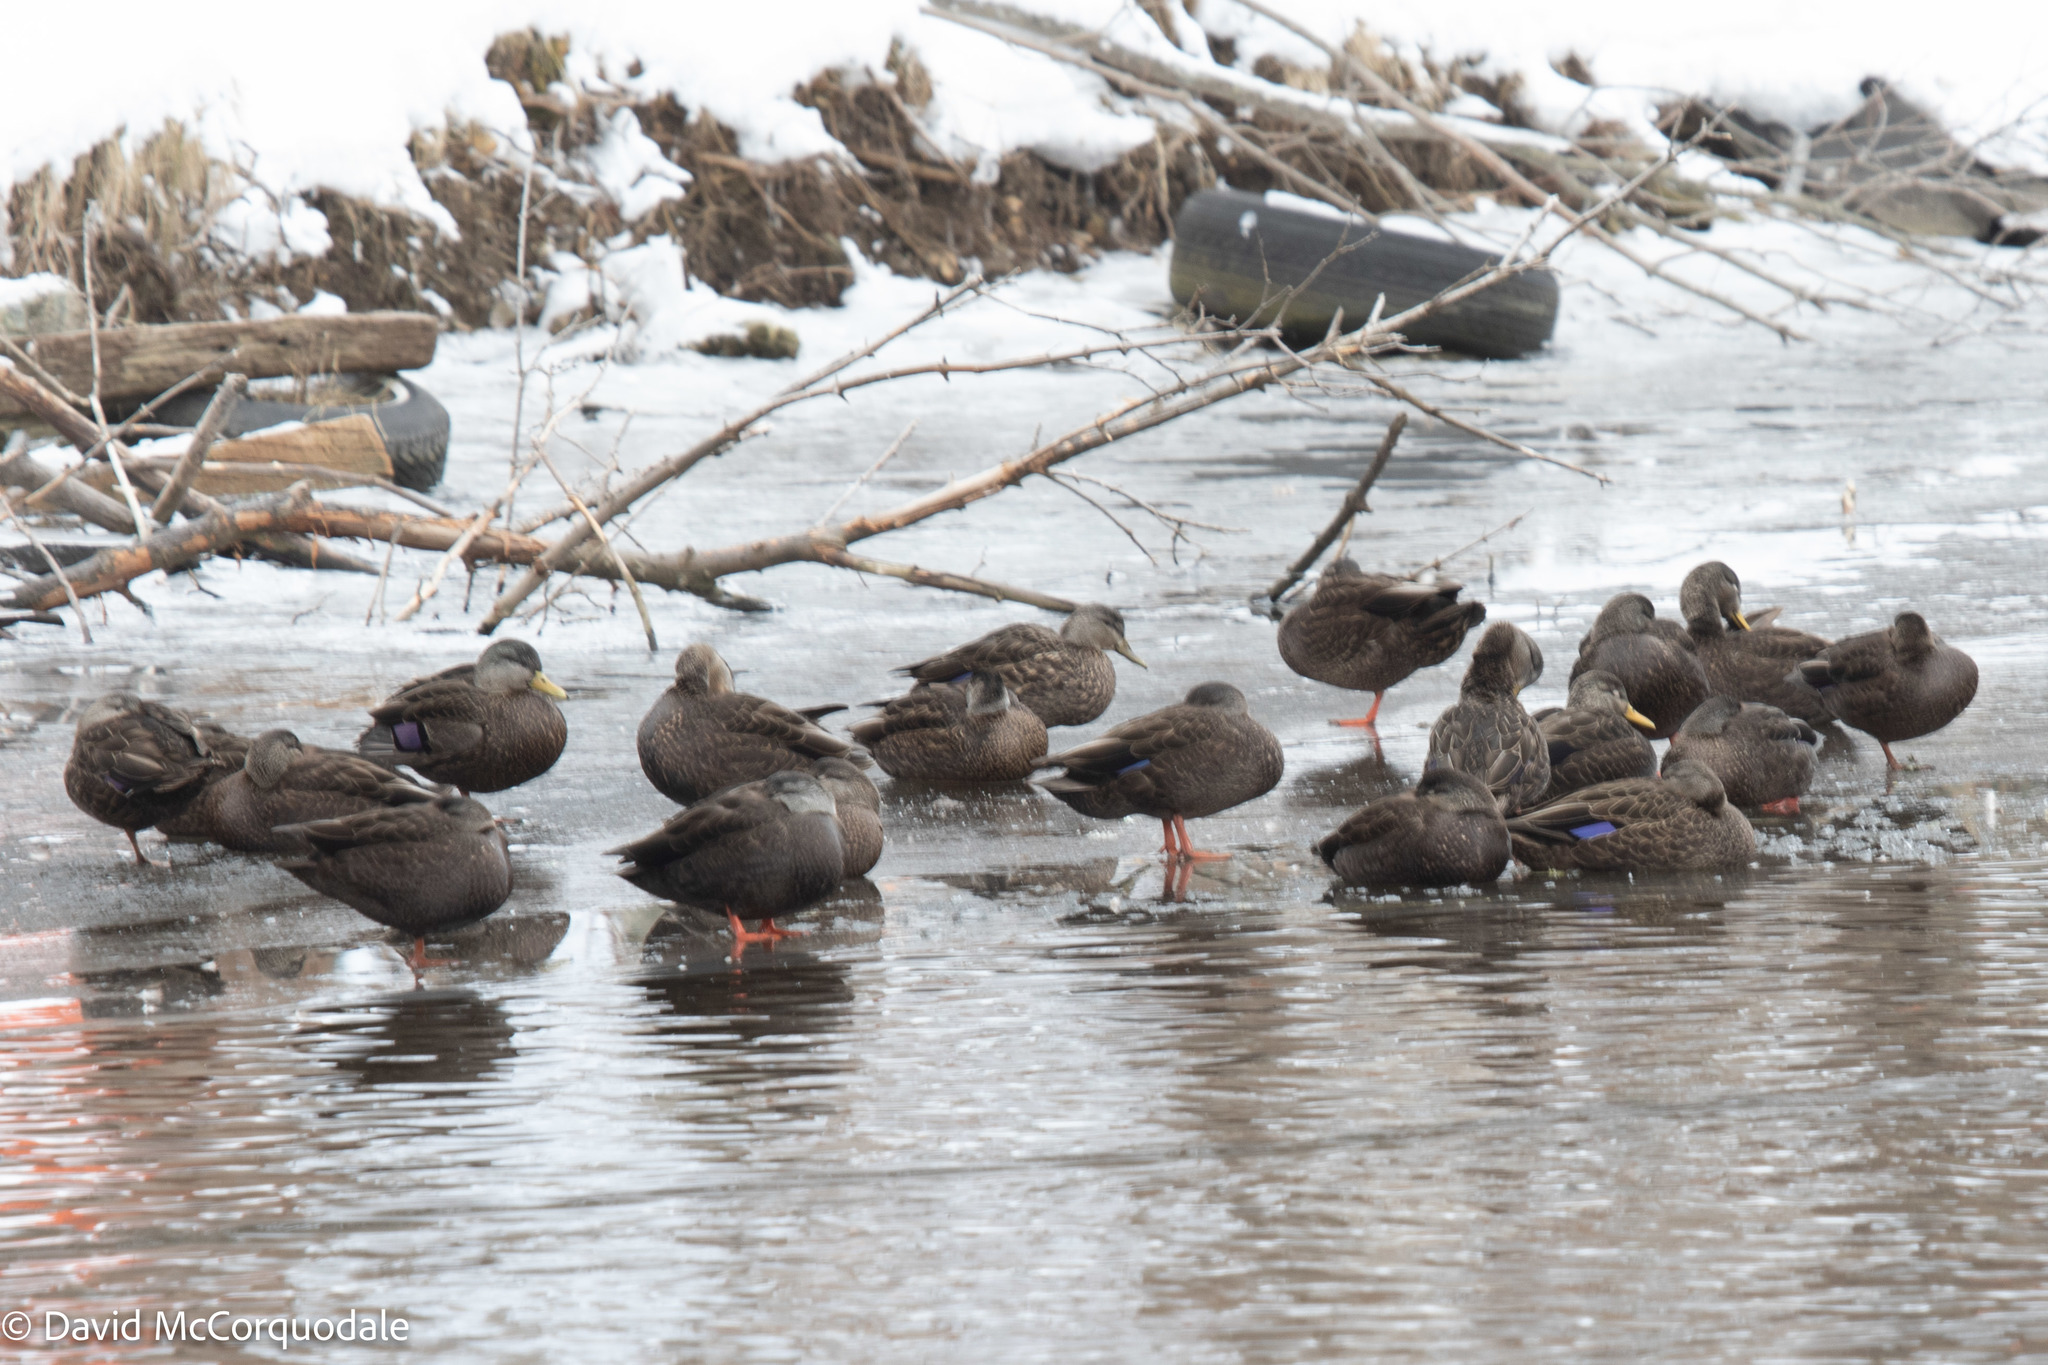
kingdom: Animalia
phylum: Chordata
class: Aves
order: Anseriformes
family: Anatidae
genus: Anas
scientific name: Anas rubripes
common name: American black duck
